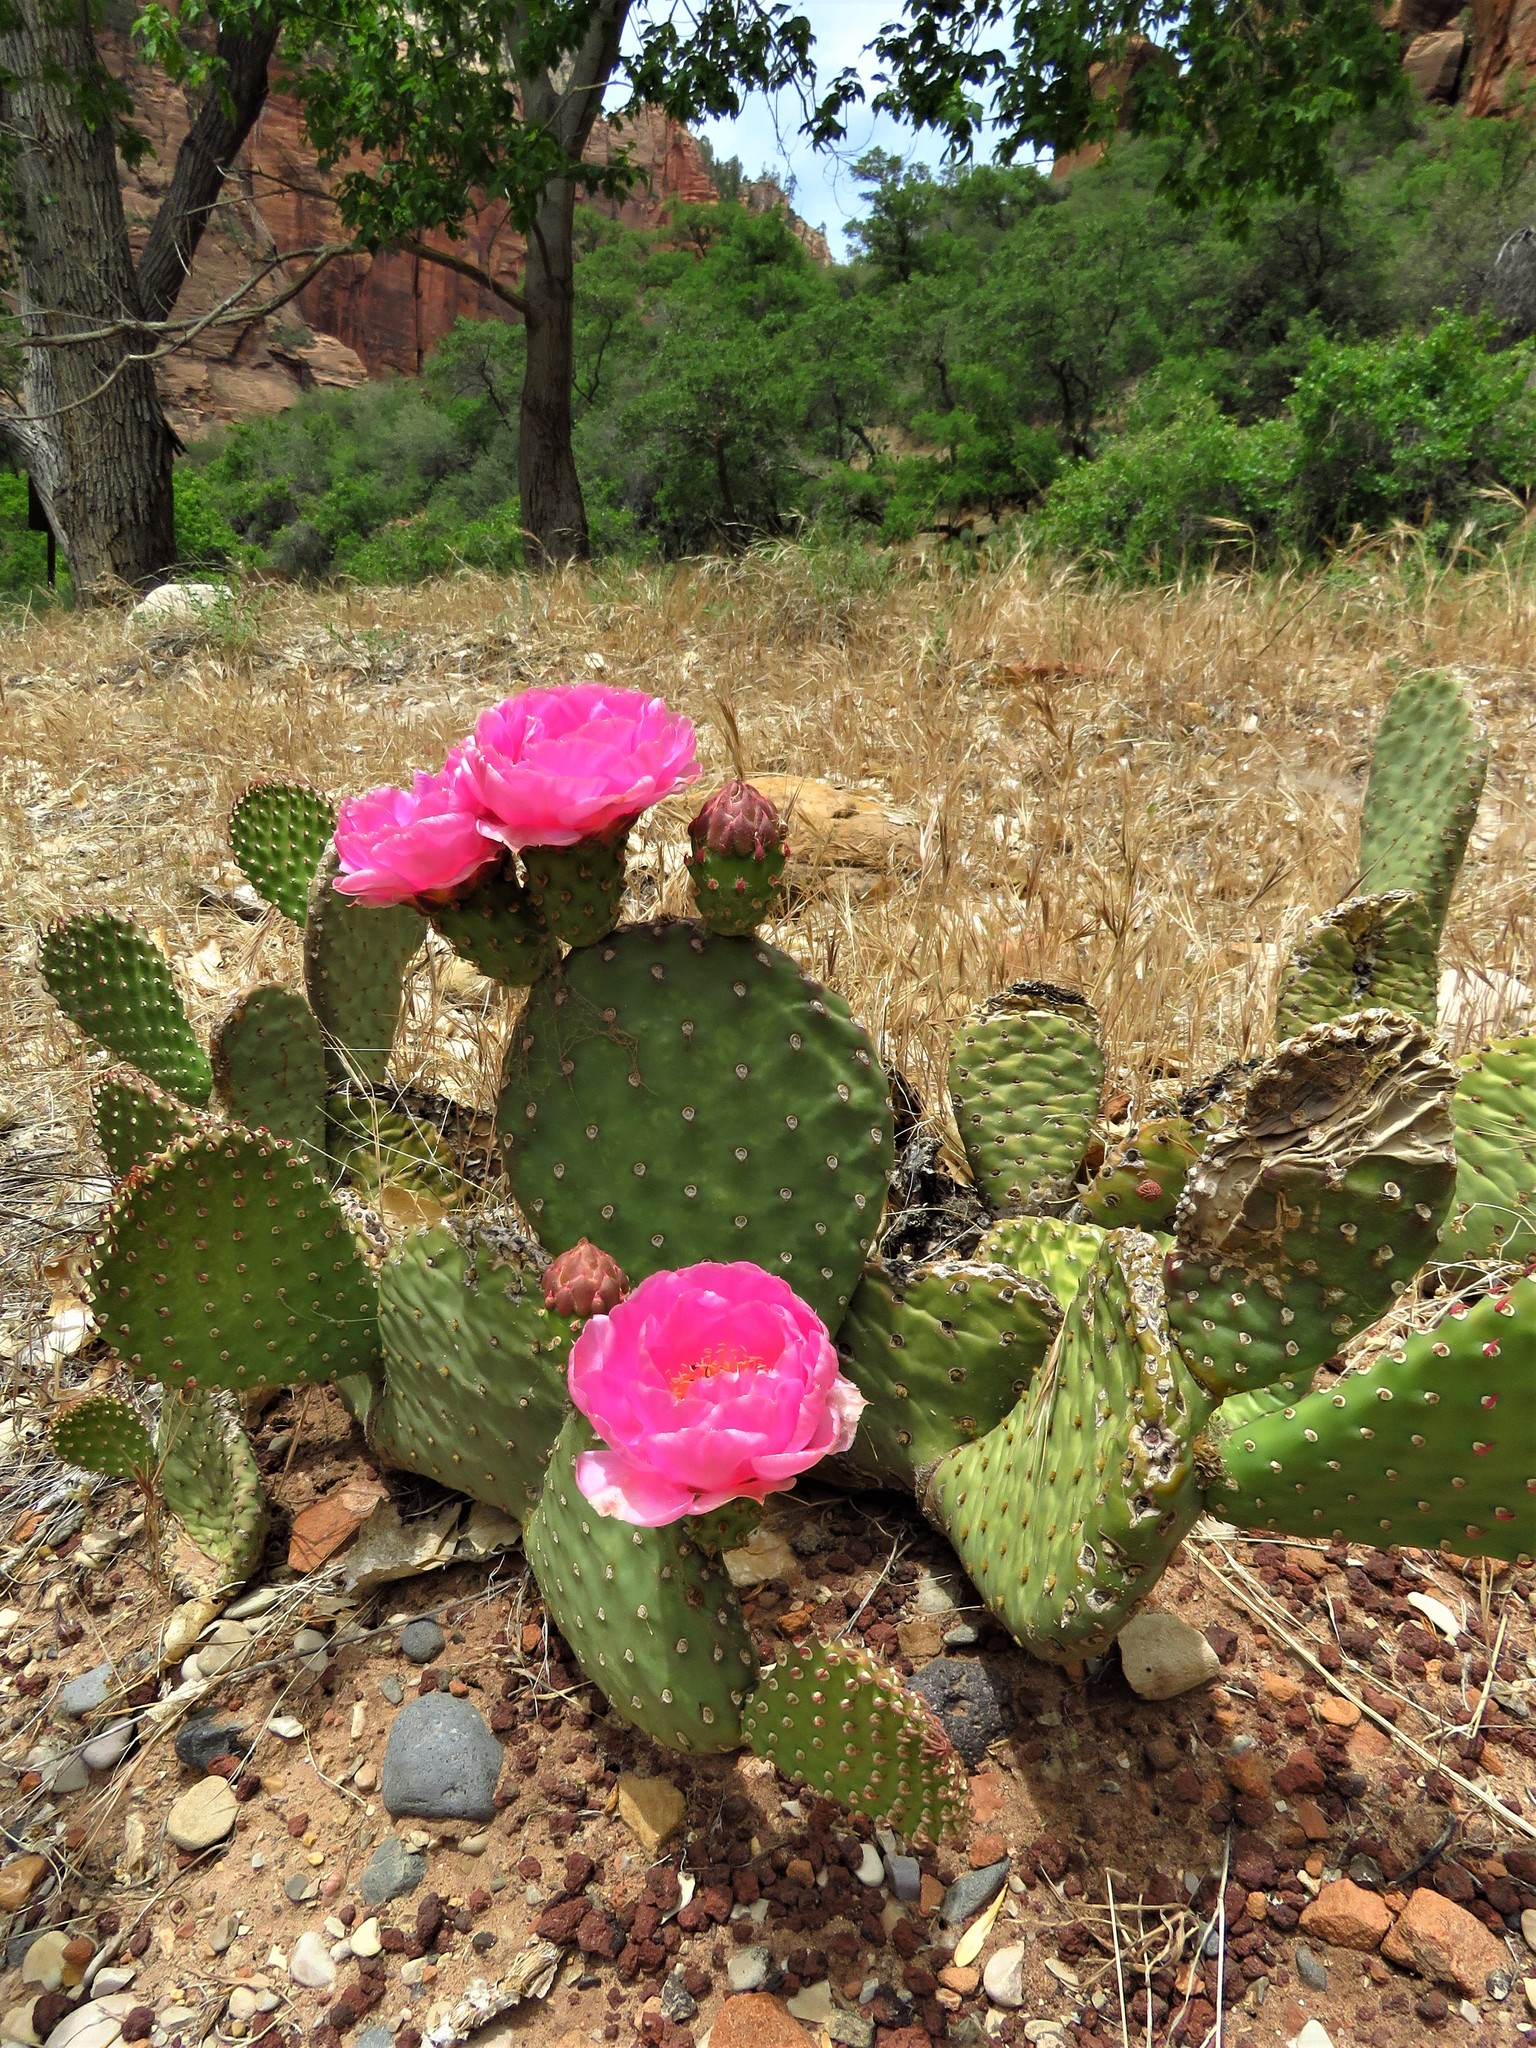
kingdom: Plantae
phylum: Tracheophyta
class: Magnoliopsida
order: Caryophyllales
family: Cactaceae
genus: Opuntia
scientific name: Opuntia aurea
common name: Golden prickly-pear
